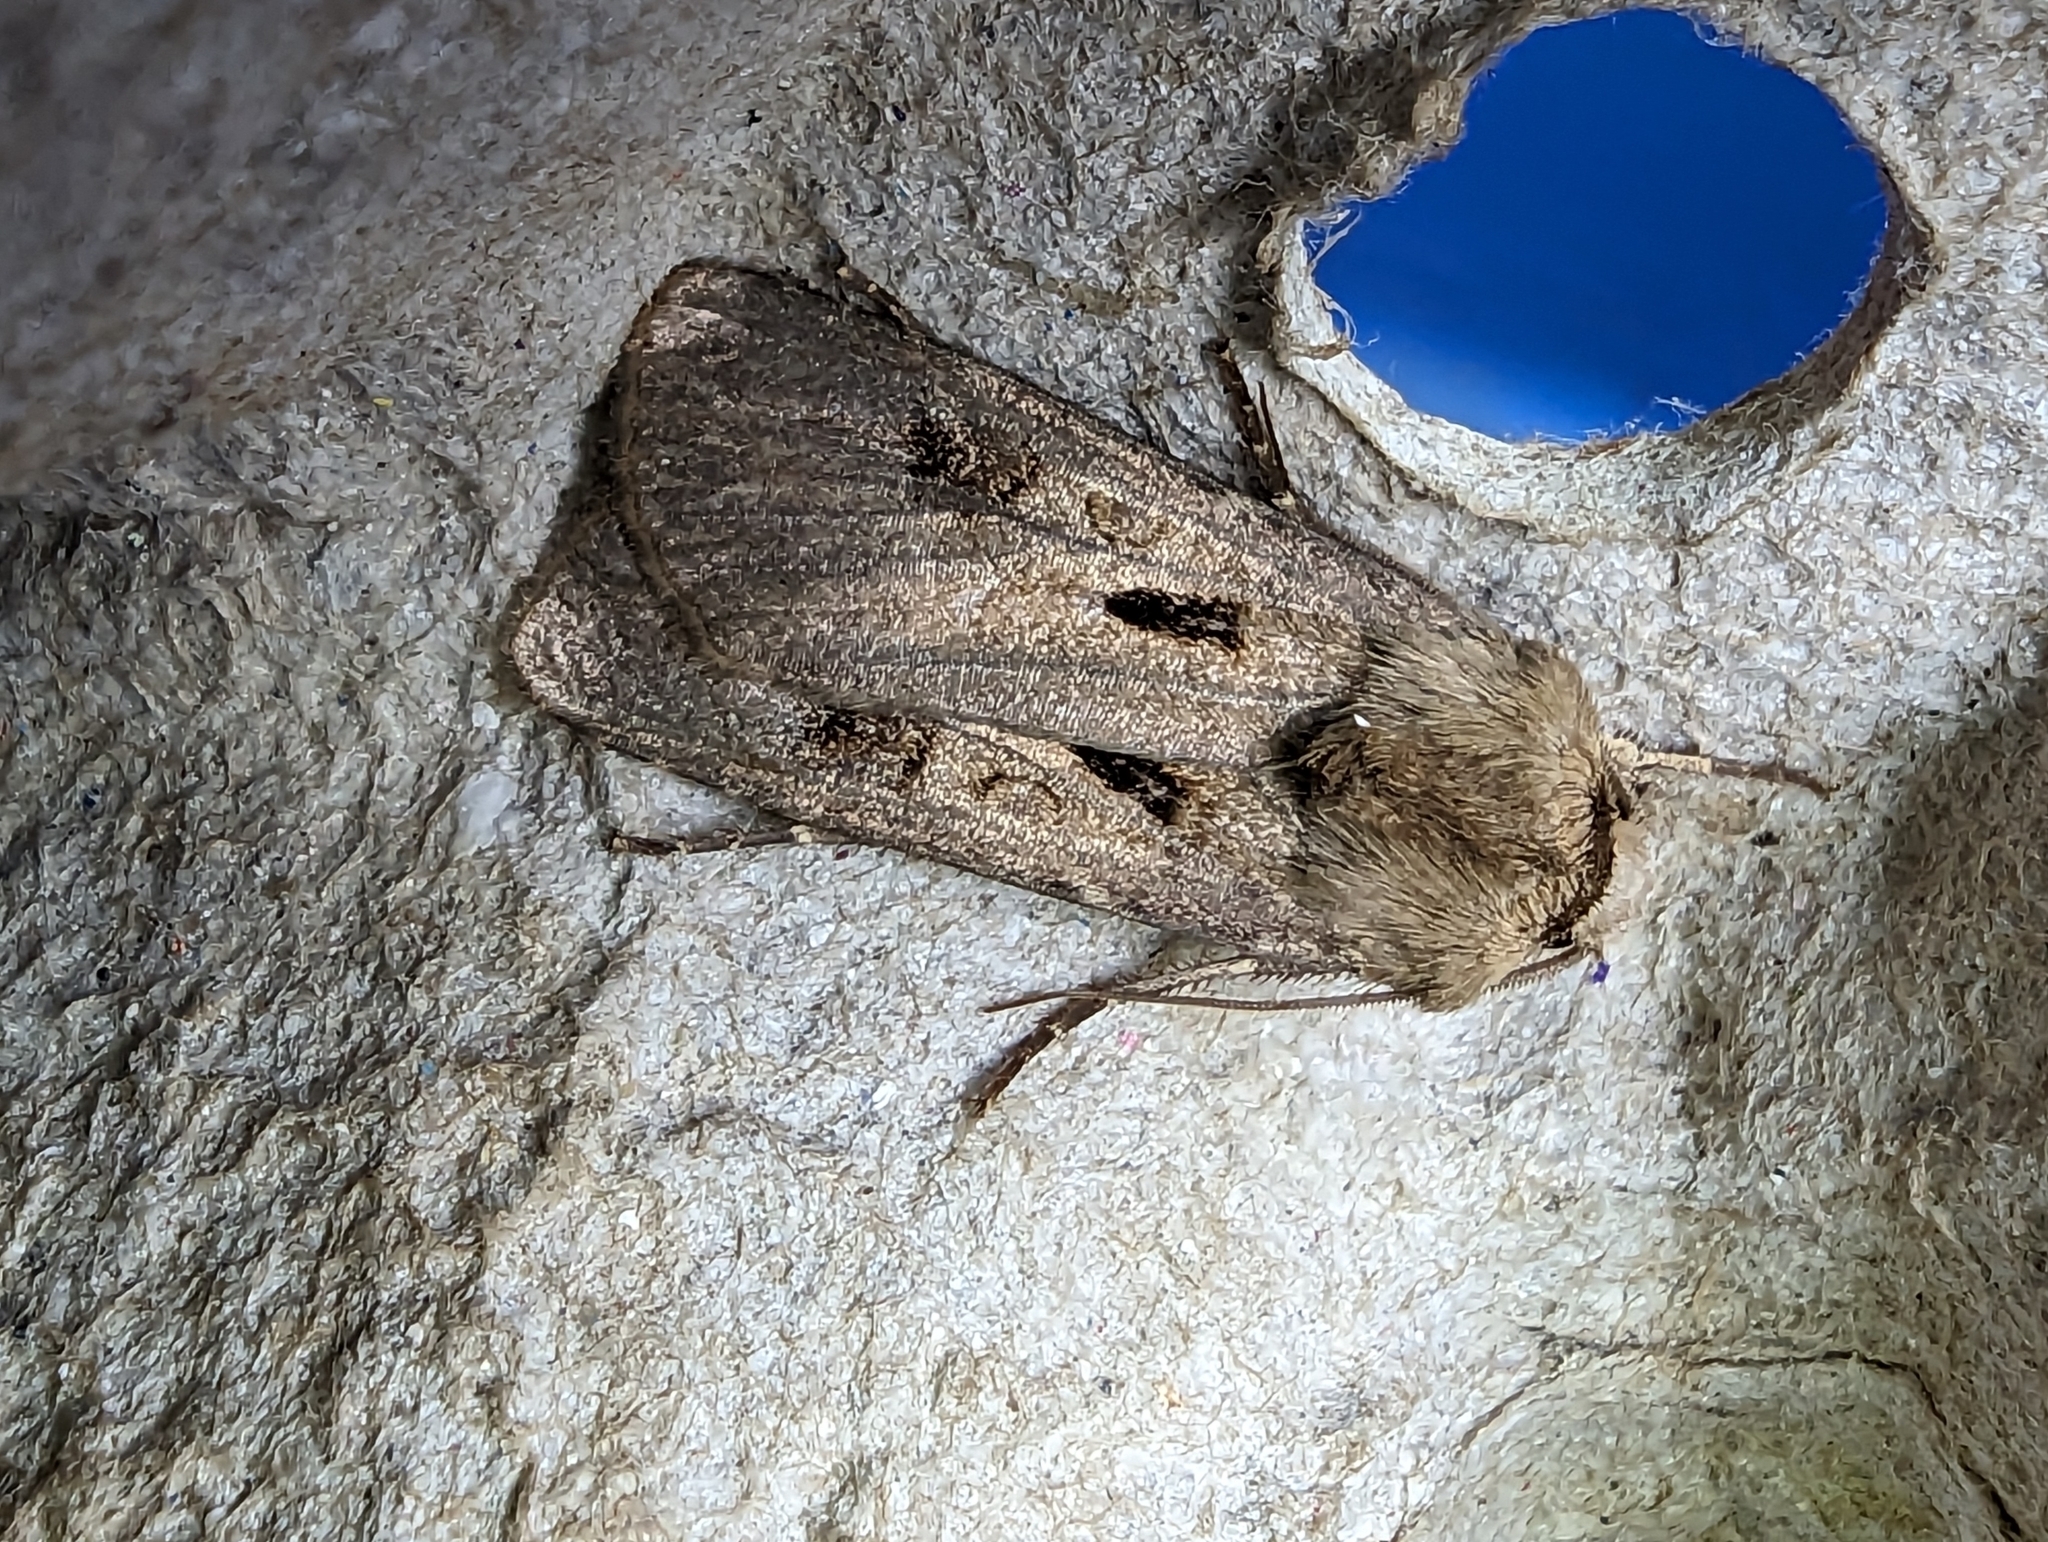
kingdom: Animalia
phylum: Arthropoda
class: Insecta
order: Lepidoptera
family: Noctuidae
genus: Agrotis
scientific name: Agrotis exclamationis
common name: Heart and dart
